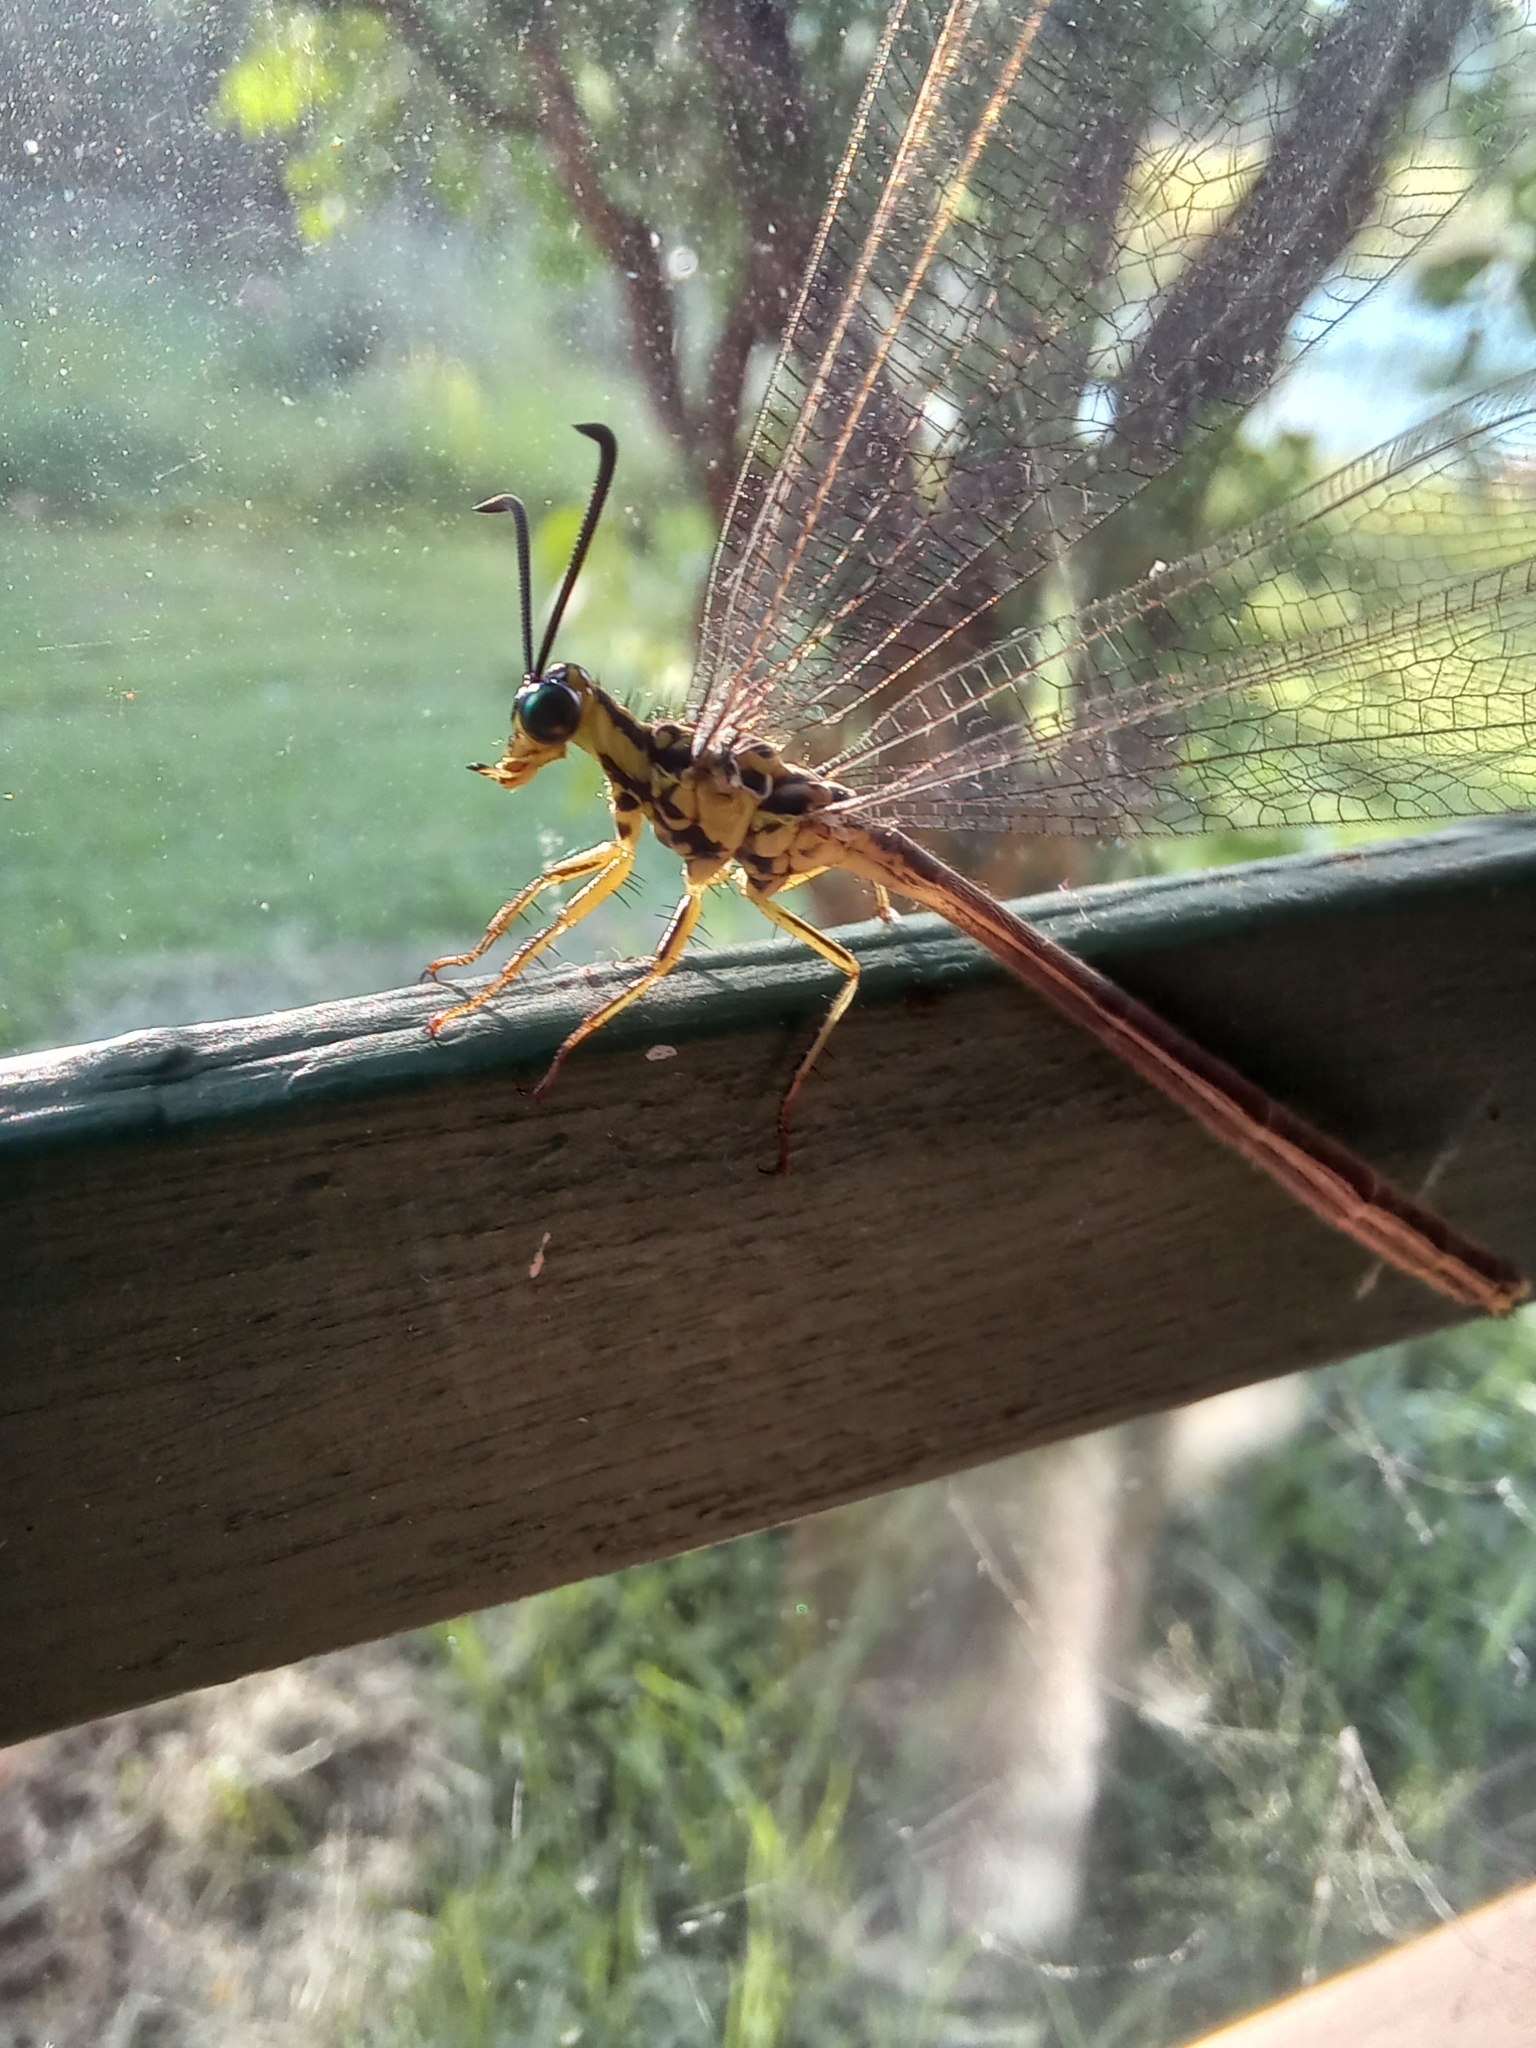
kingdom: Animalia
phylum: Arthropoda
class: Insecta
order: Neuroptera
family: Myrmeleontidae
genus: Hagenomyia
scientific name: Hagenomyia tristis
